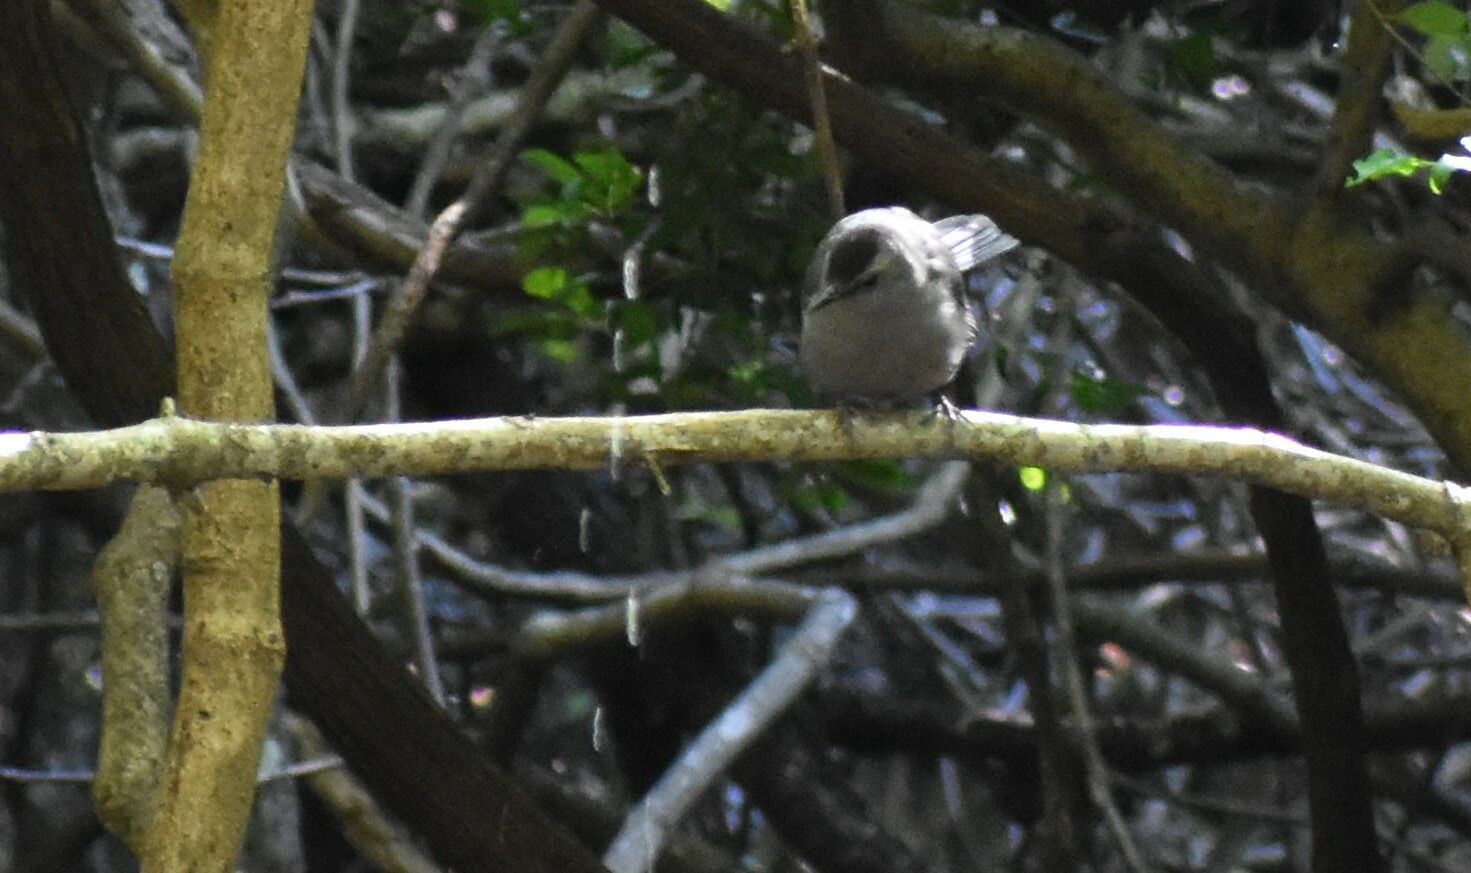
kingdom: Animalia
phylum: Chordata
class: Aves
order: Passeriformes
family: Mimidae
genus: Dumetella
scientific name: Dumetella carolinensis
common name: Gray catbird
